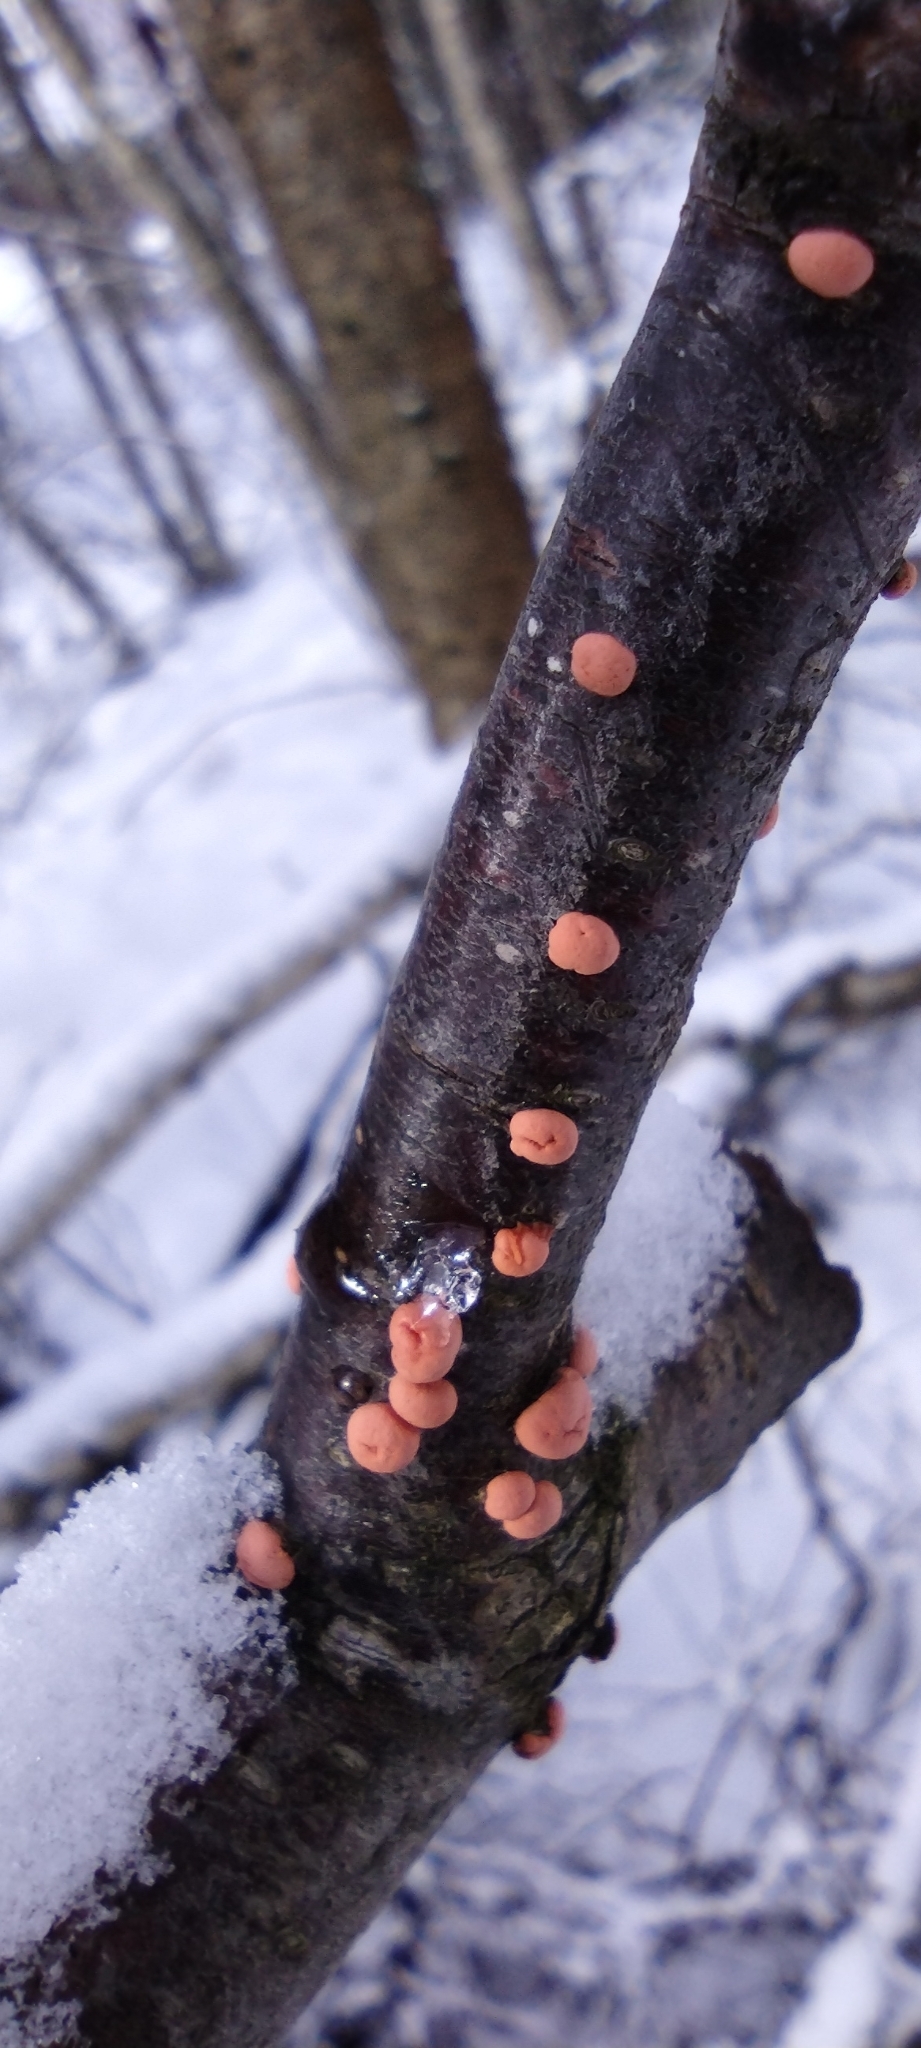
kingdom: Fungi
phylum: Ascomycota
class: Sordariomycetes
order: Hypocreales
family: Nectriaceae
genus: Nectria
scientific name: Nectria cinnabarina
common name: Coral spot
